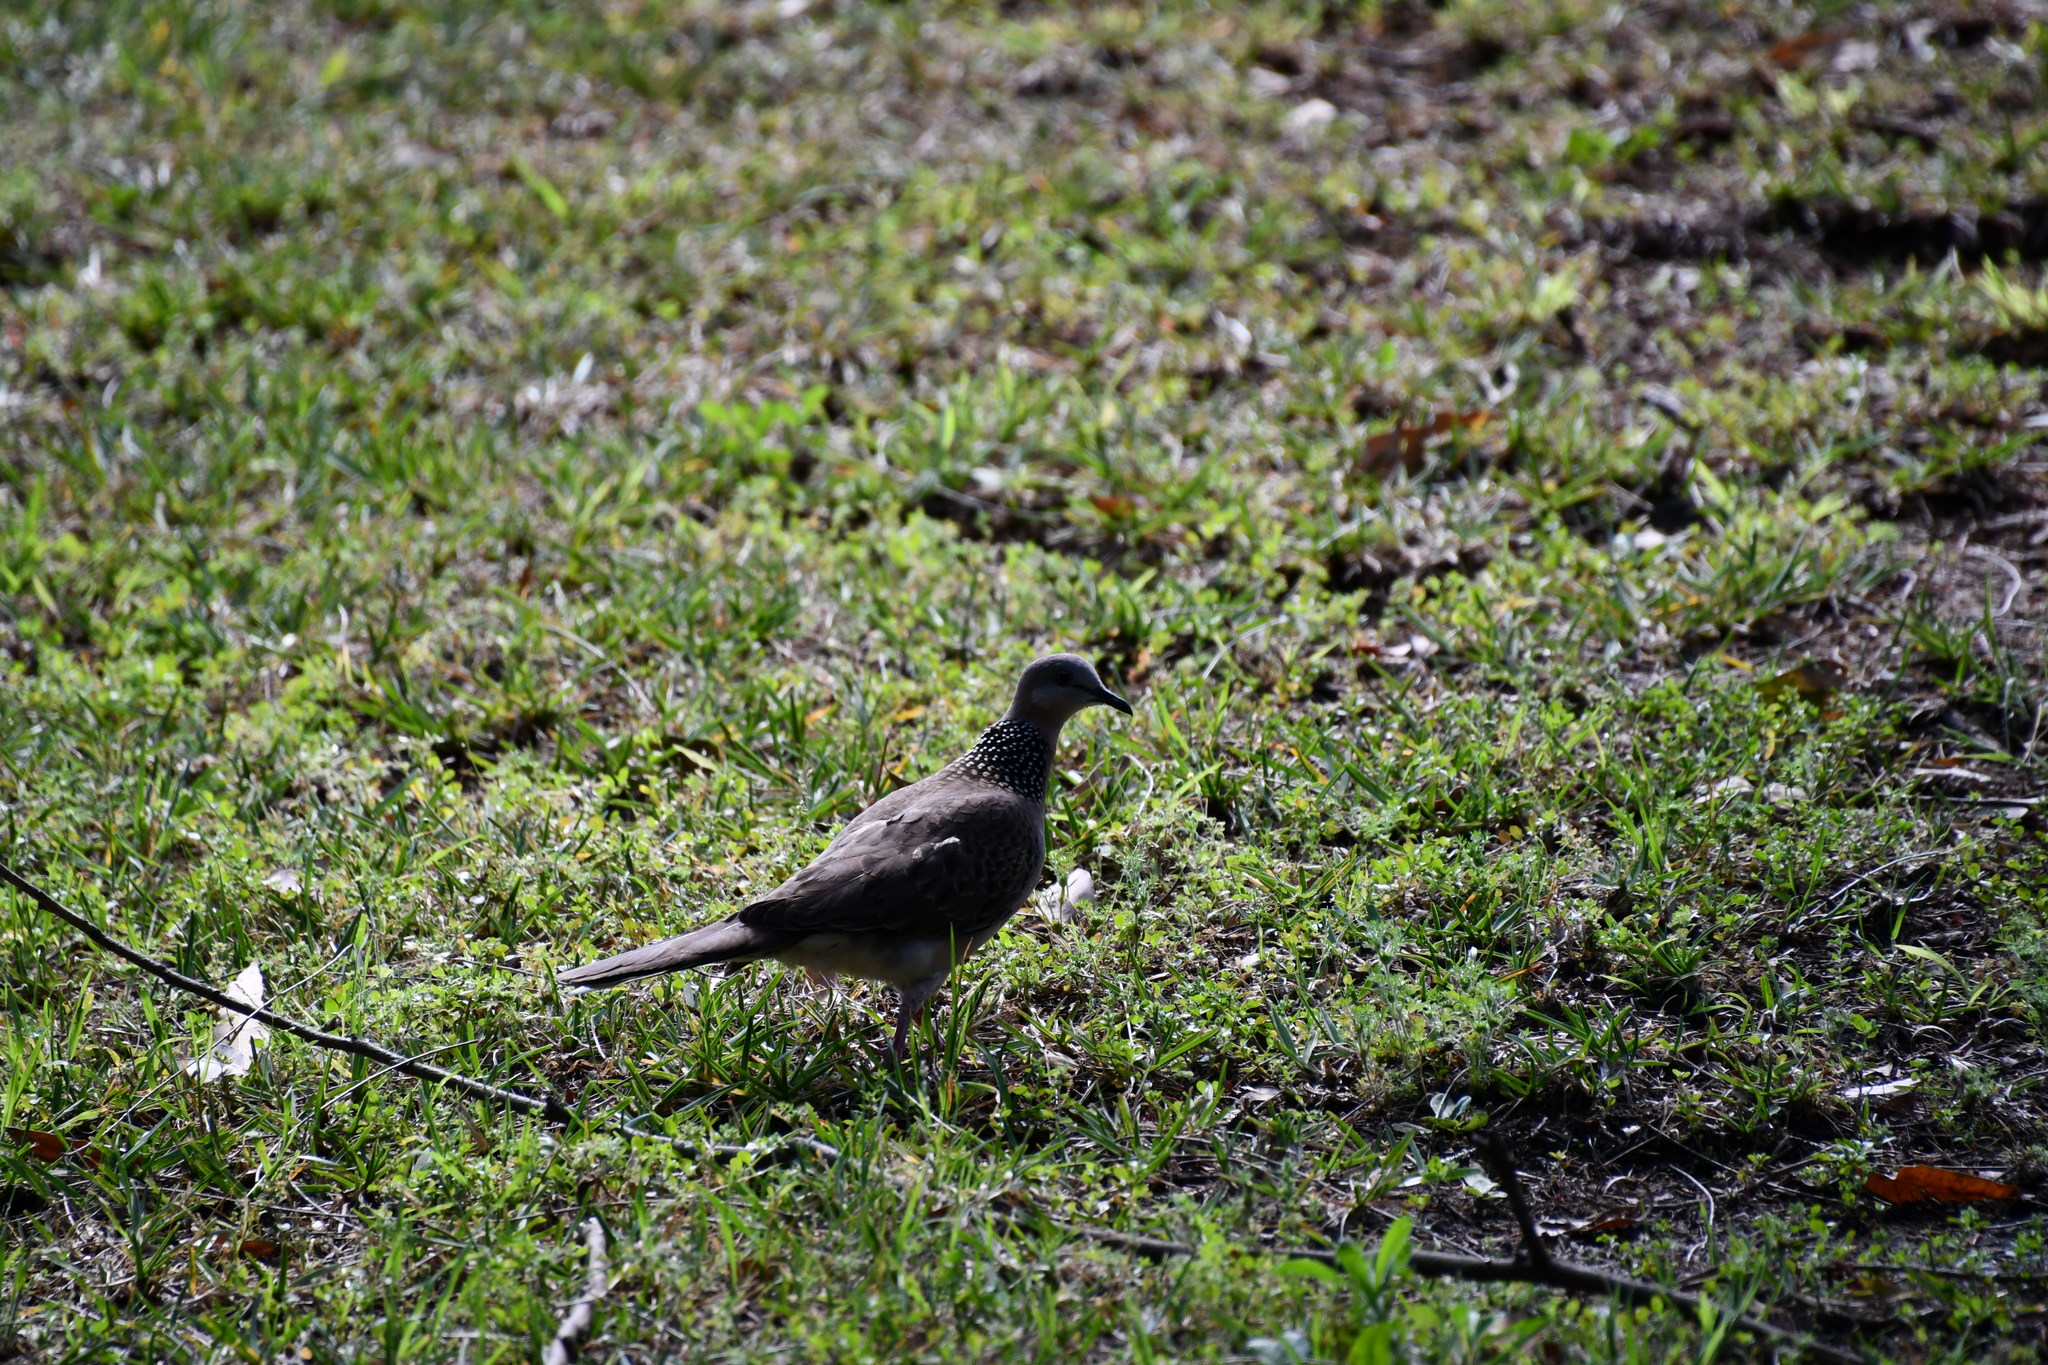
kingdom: Animalia
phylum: Chordata
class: Aves
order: Columbiformes
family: Columbidae
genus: Spilopelia
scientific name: Spilopelia chinensis
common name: Spotted dove
